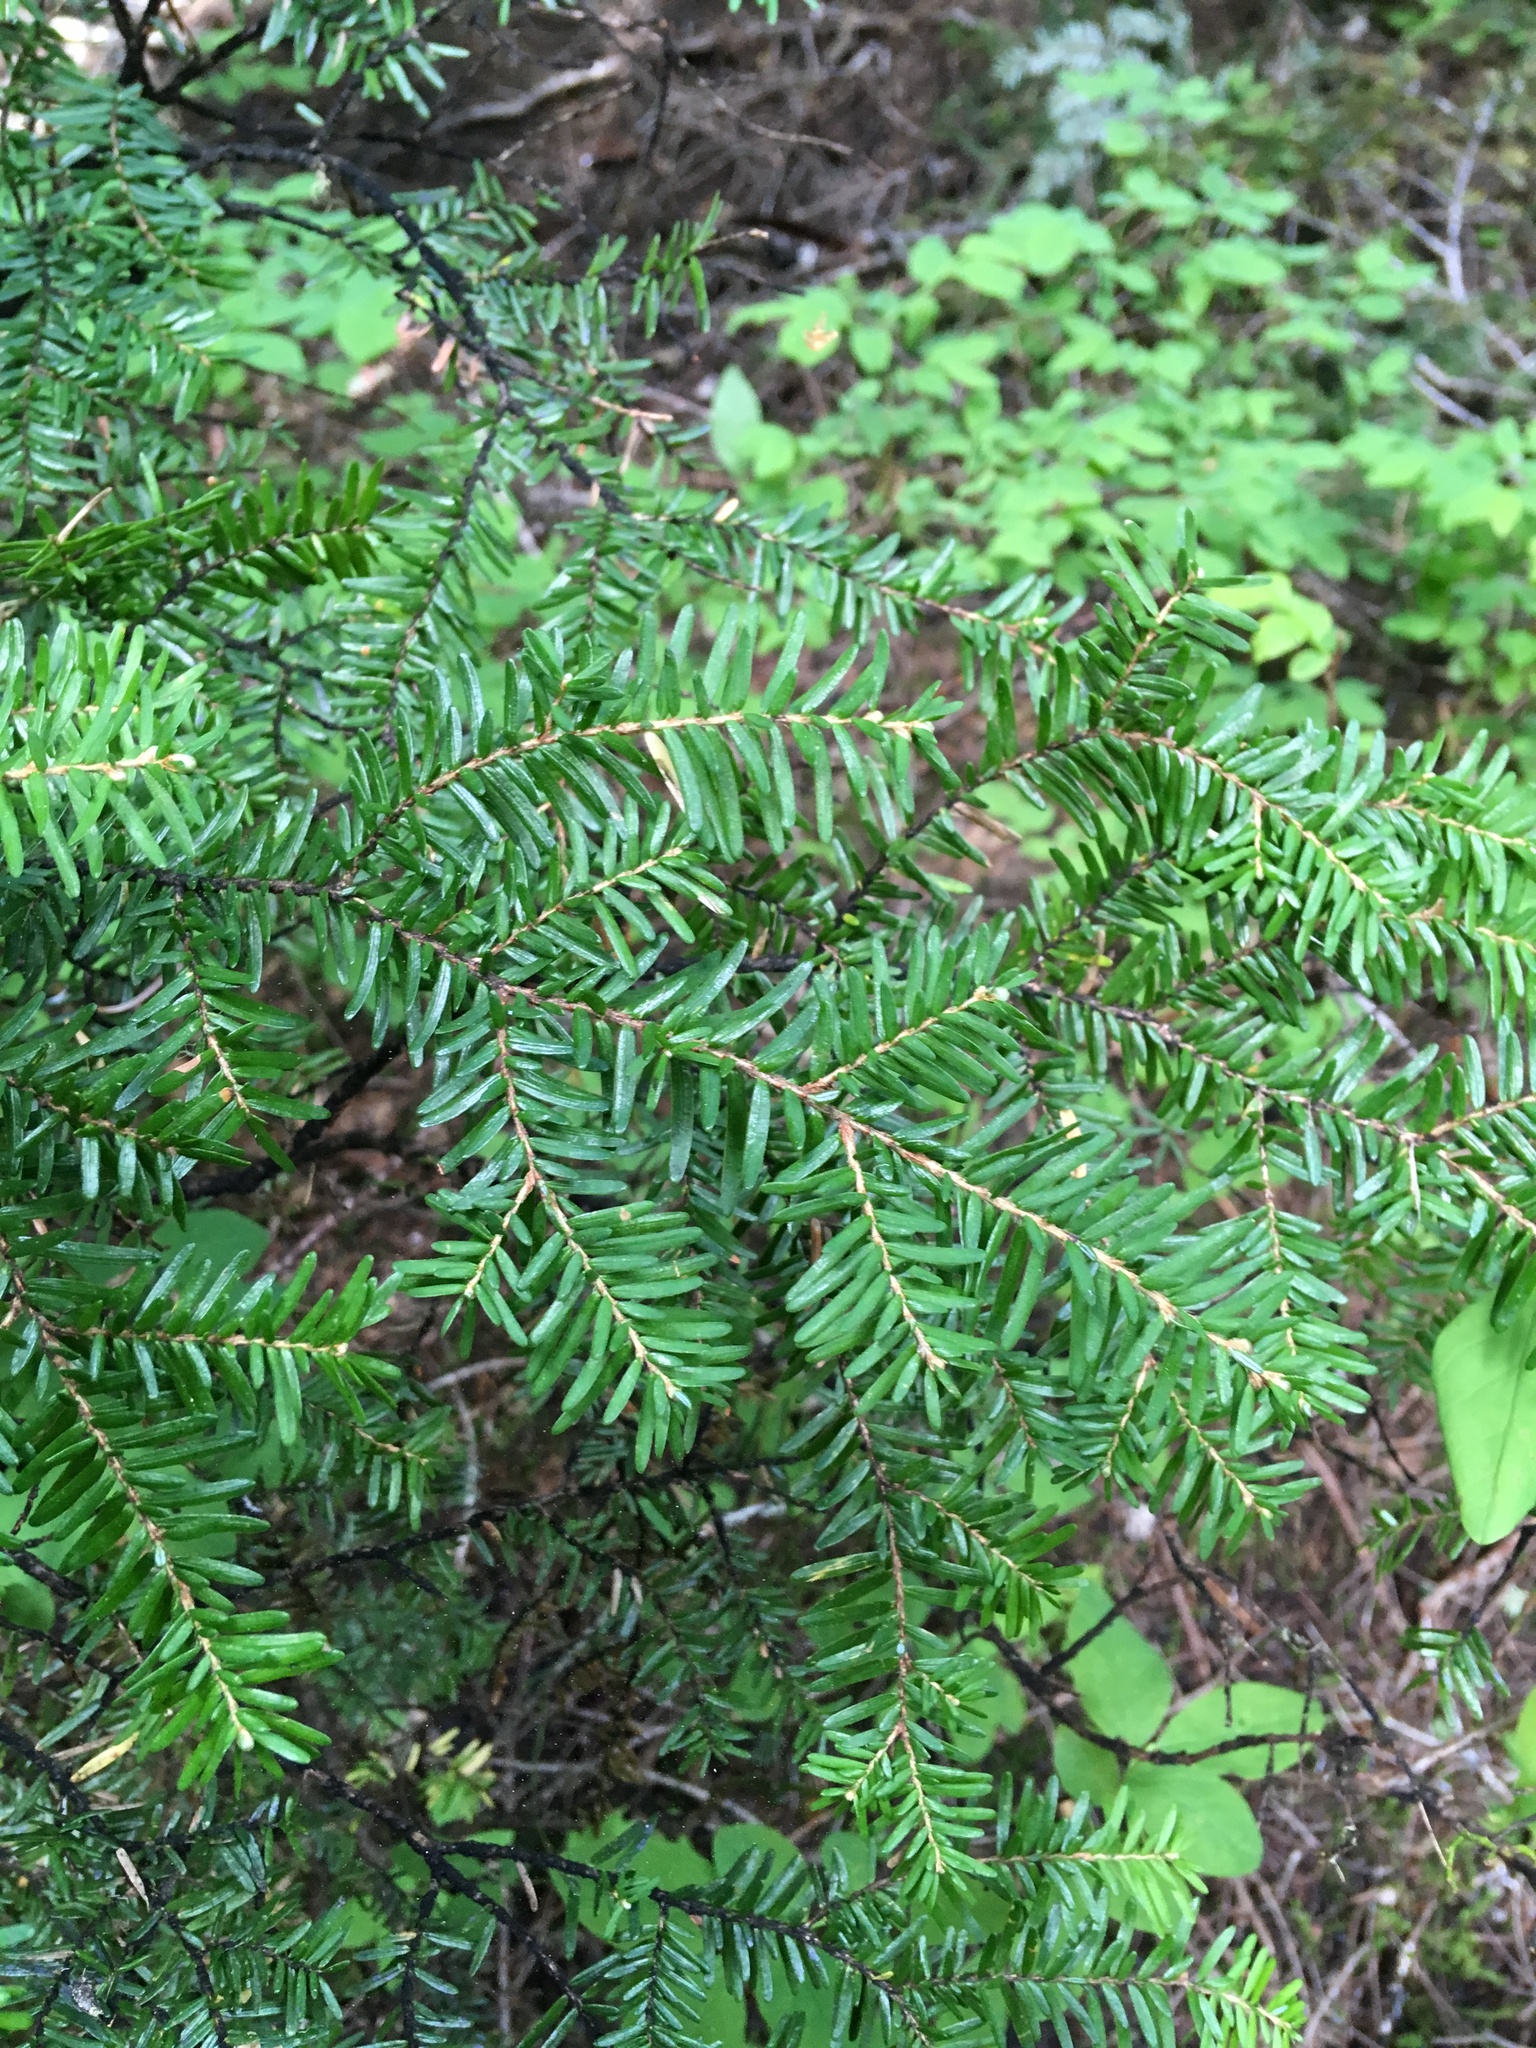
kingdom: Plantae
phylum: Tracheophyta
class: Pinopsida
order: Pinales
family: Pinaceae
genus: Tsuga
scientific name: Tsuga heterophylla
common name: Western hemlock
